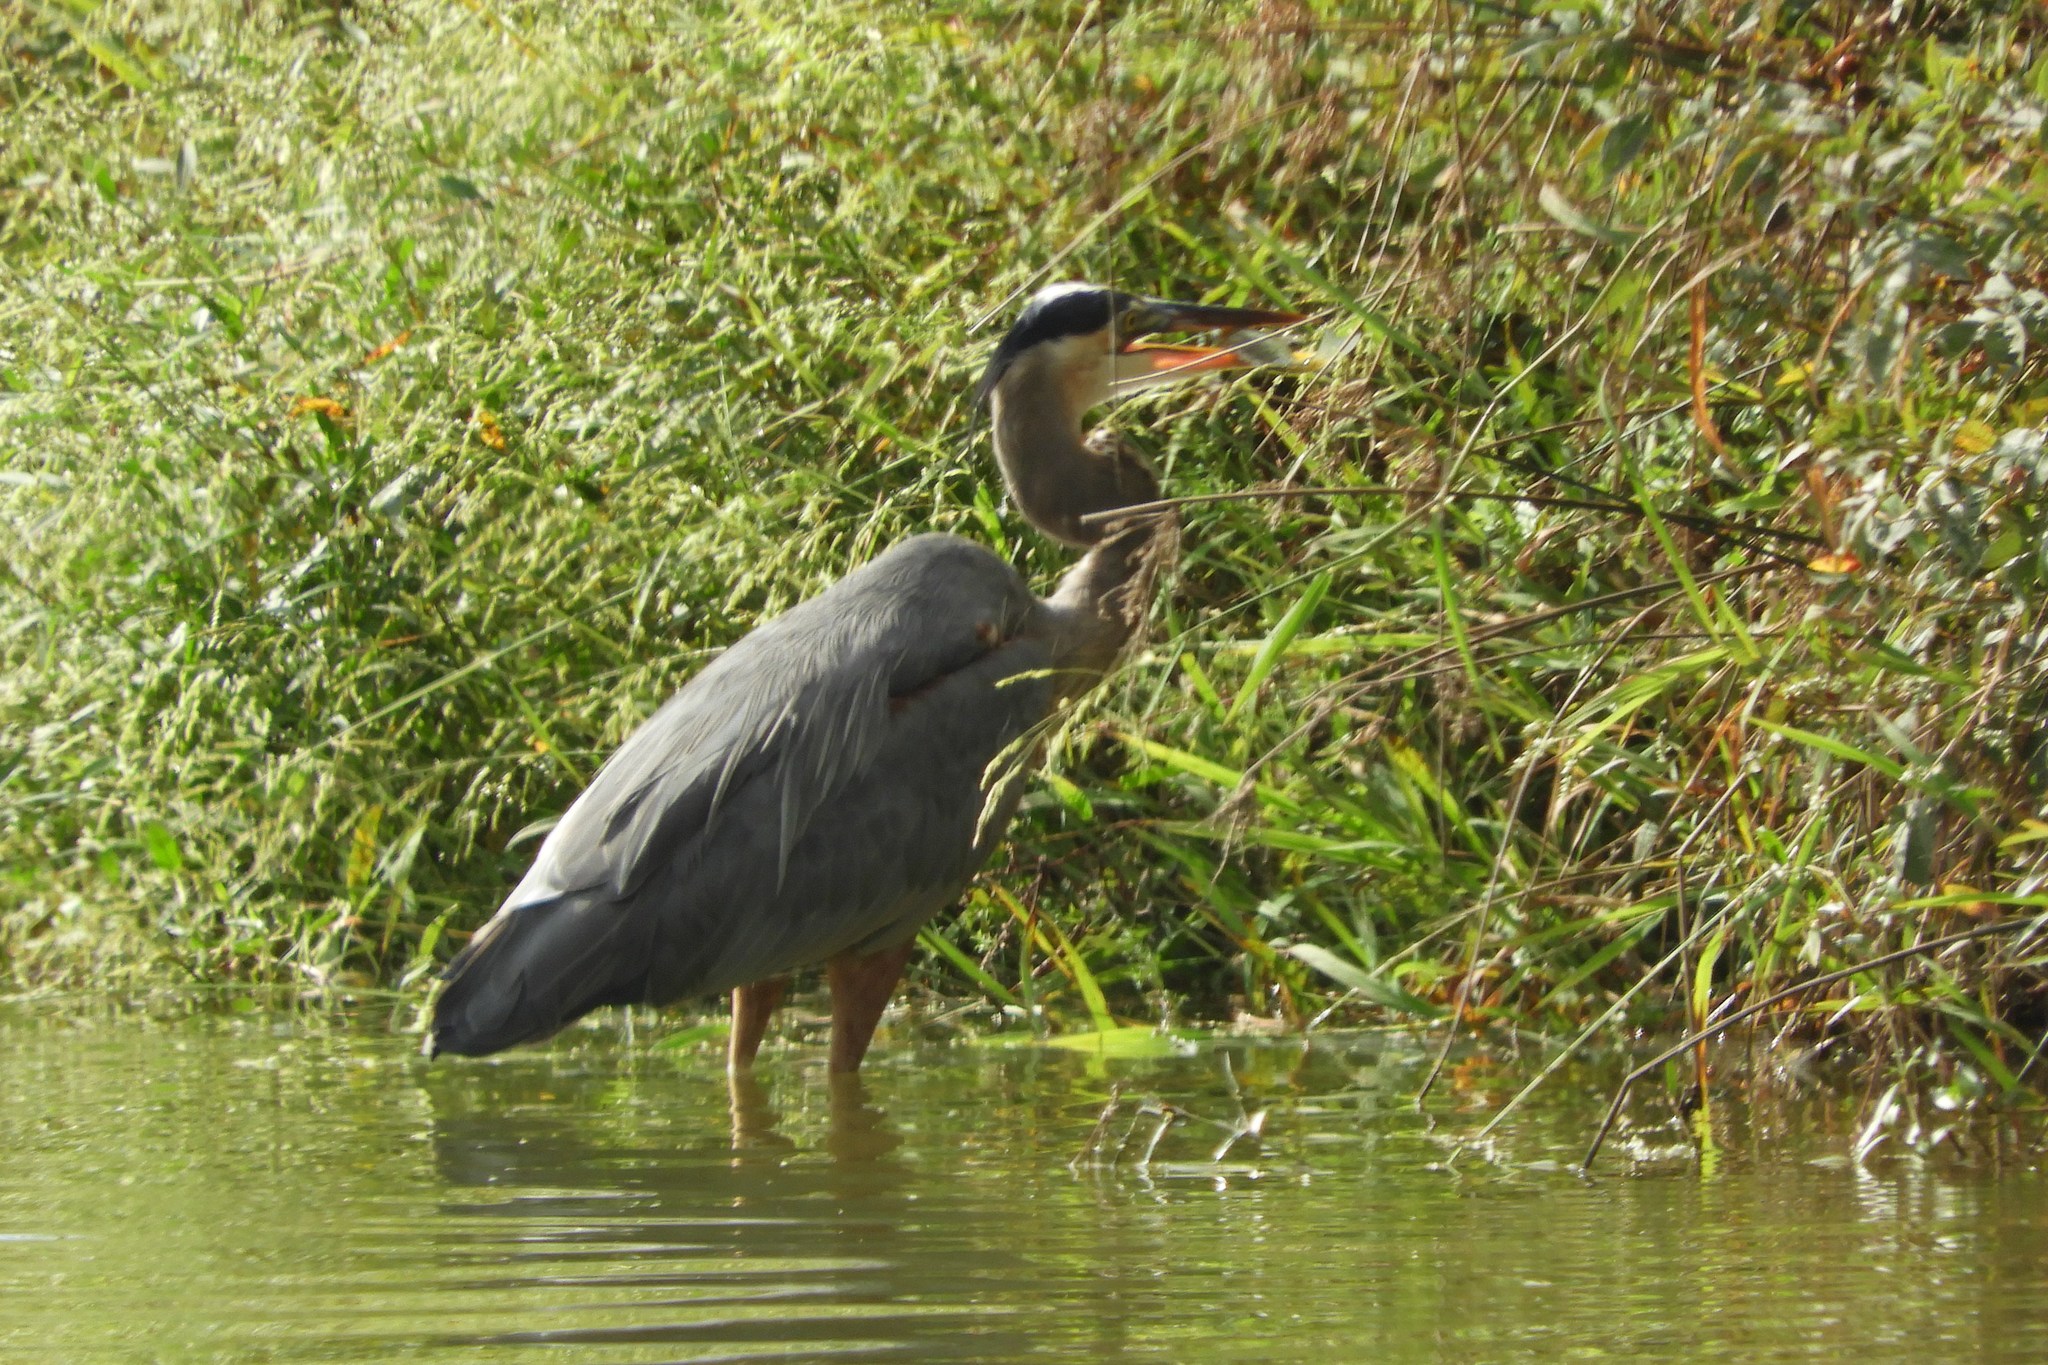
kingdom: Animalia
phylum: Chordata
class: Aves
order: Pelecaniformes
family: Ardeidae
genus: Ardea
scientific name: Ardea herodias
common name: Great blue heron
